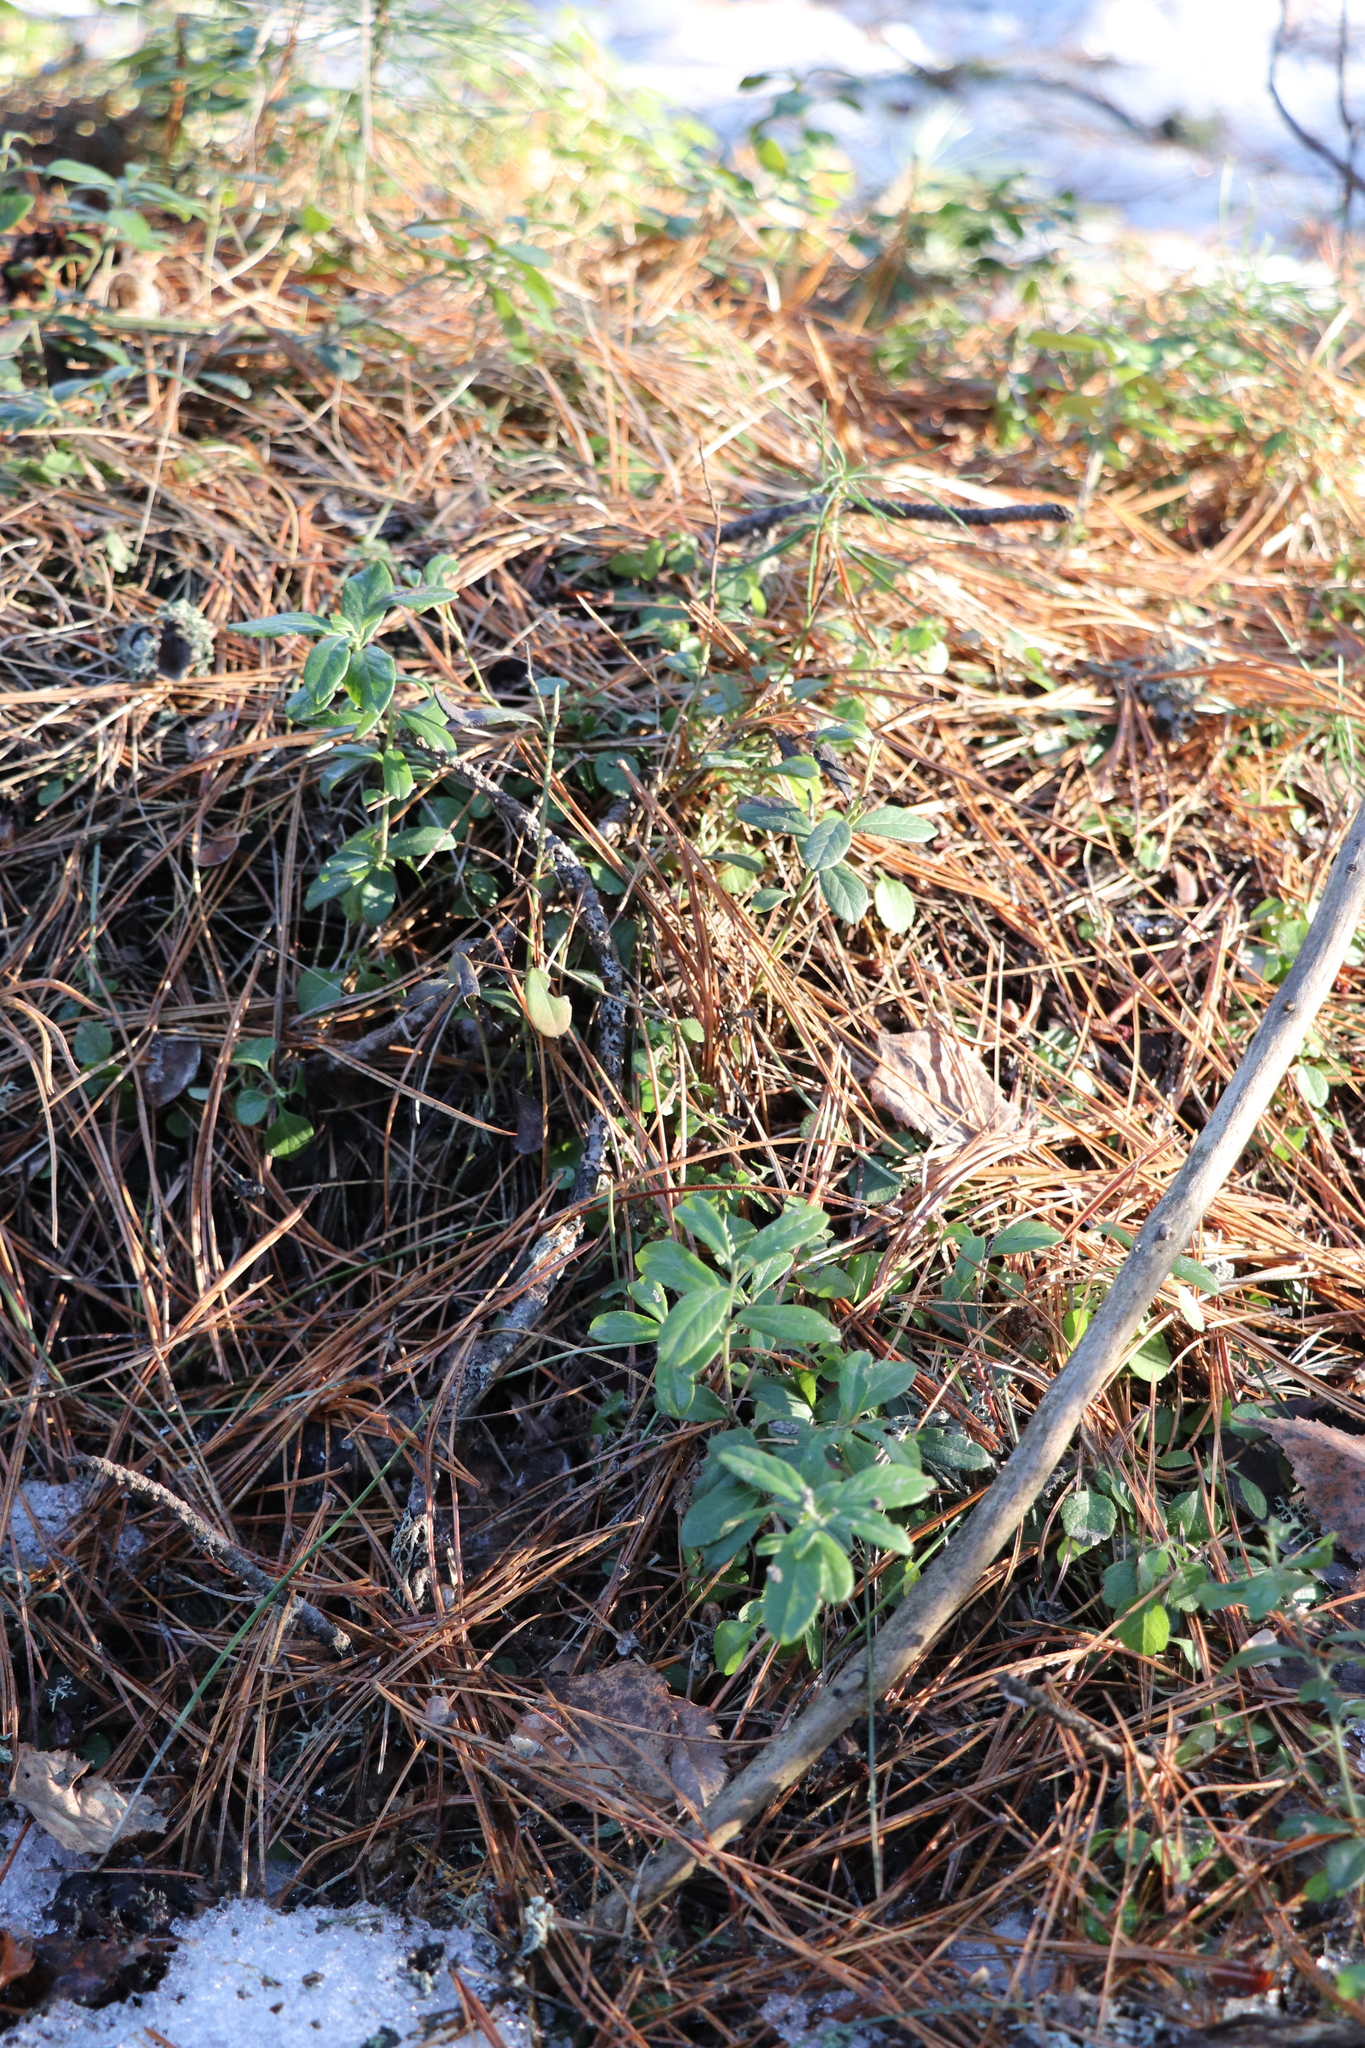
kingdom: Plantae
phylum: Tracheophyta
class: Magnoliopsida
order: Ericales
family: Ericaceae
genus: Vaccinium
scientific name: Vaccinium vitis-idaea
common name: Cowberry
